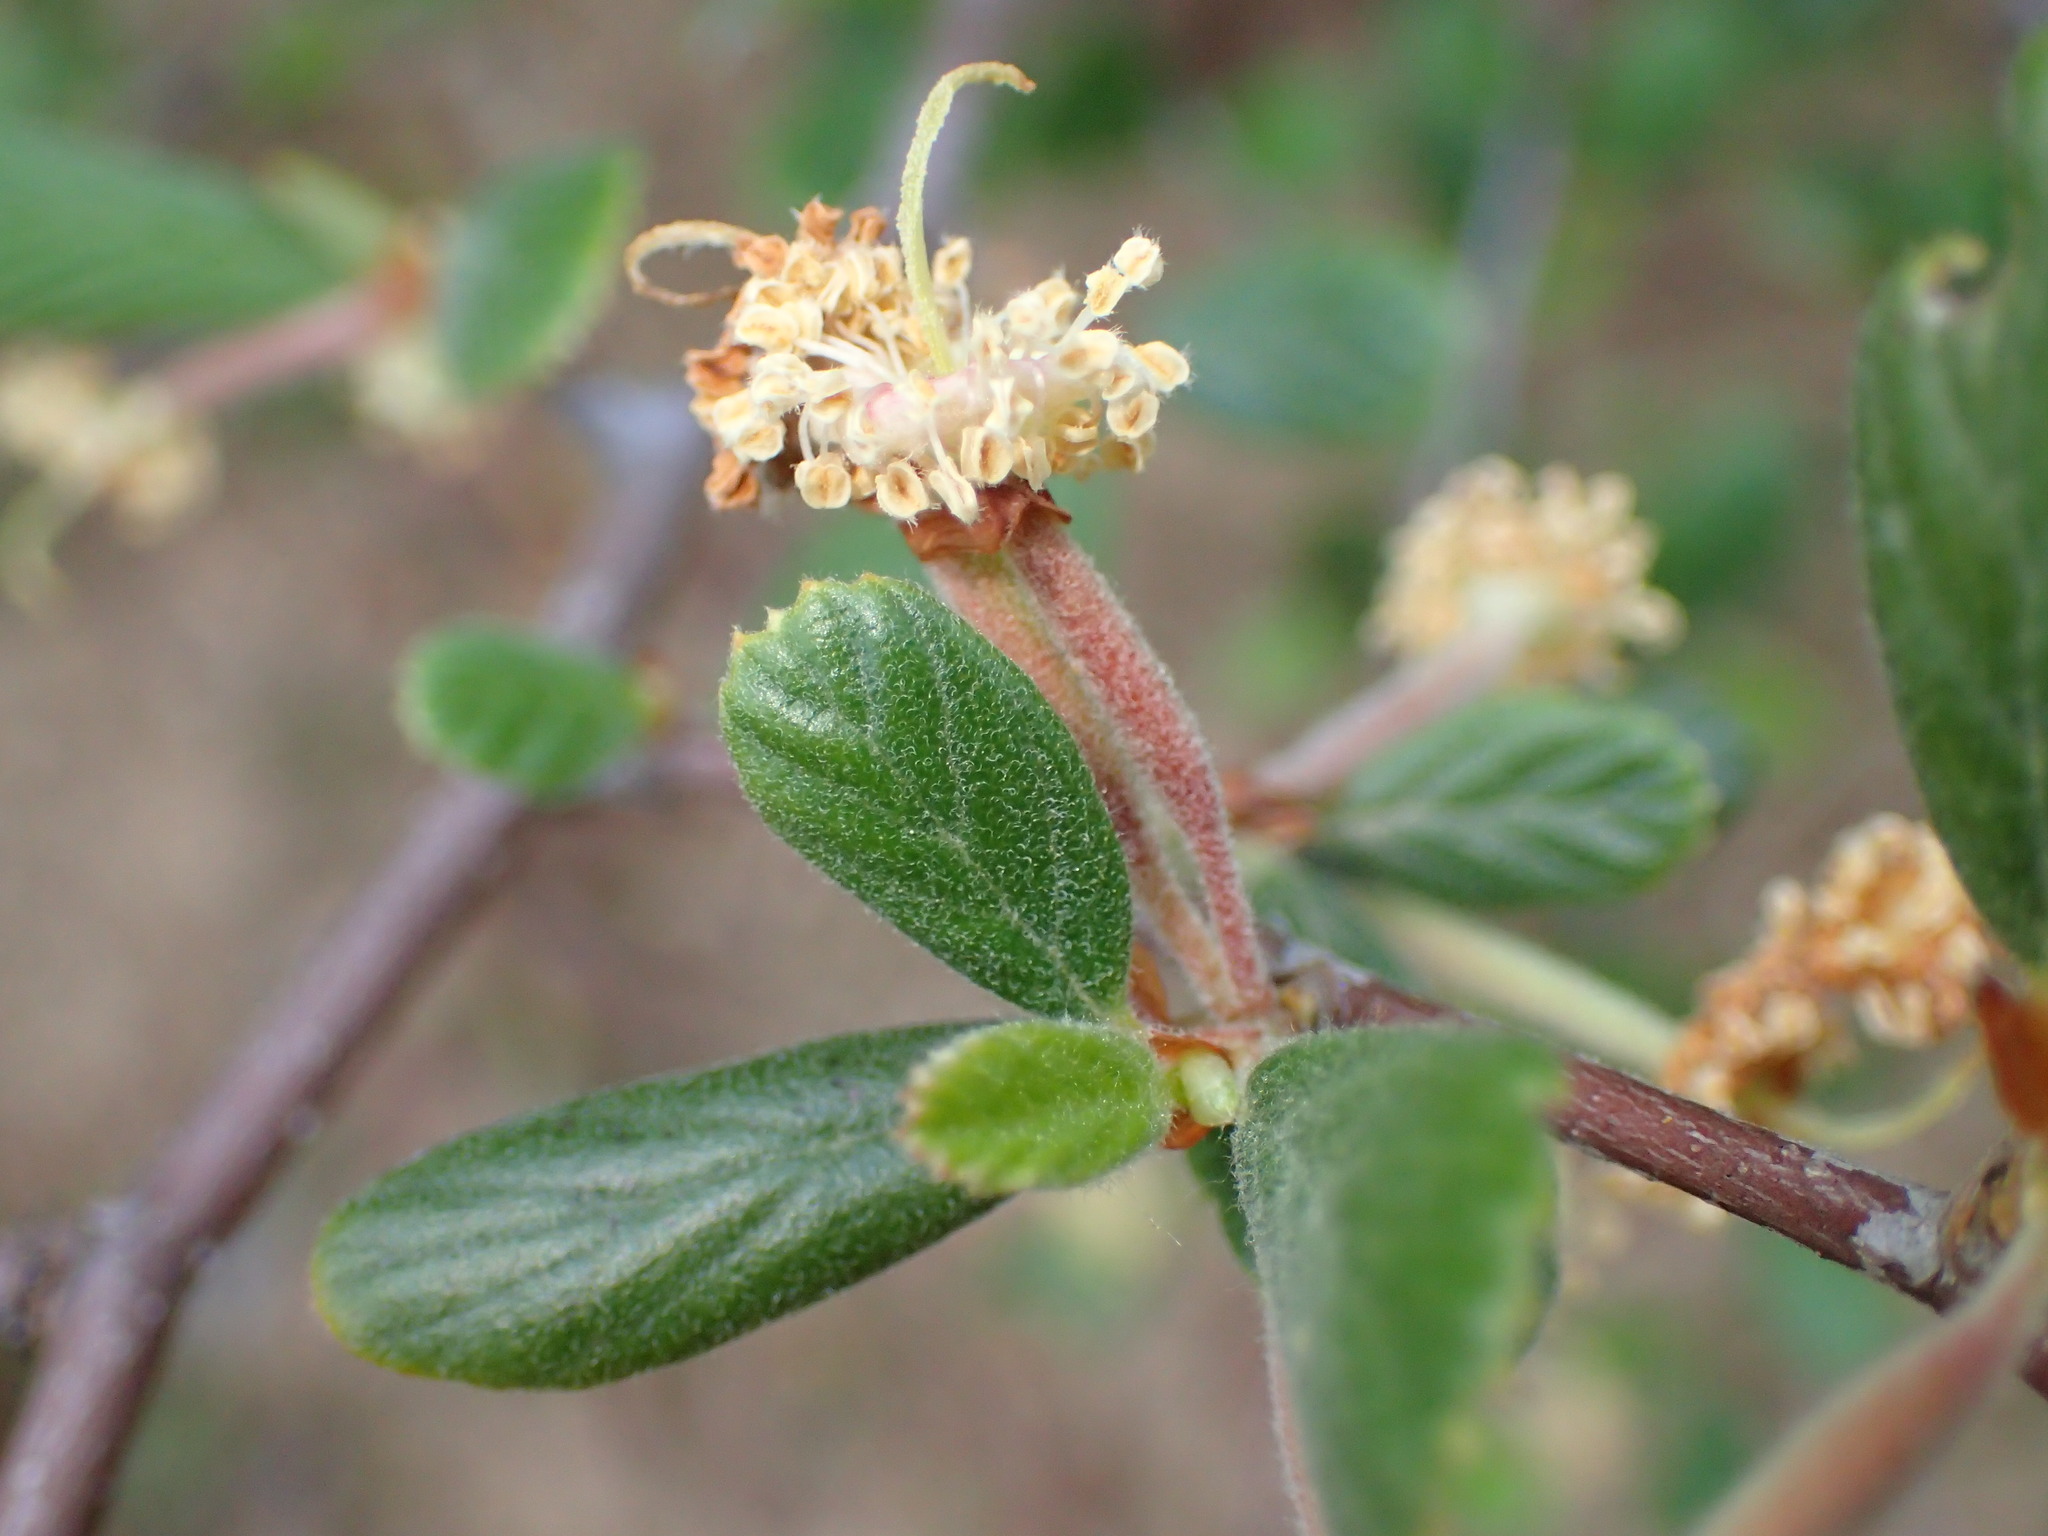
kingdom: Plantae
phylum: Tracheophyta
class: Magnoliopsida
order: Rosales
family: Rosaceae
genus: Cercocarpus
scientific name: Cercocarpus betuloides
